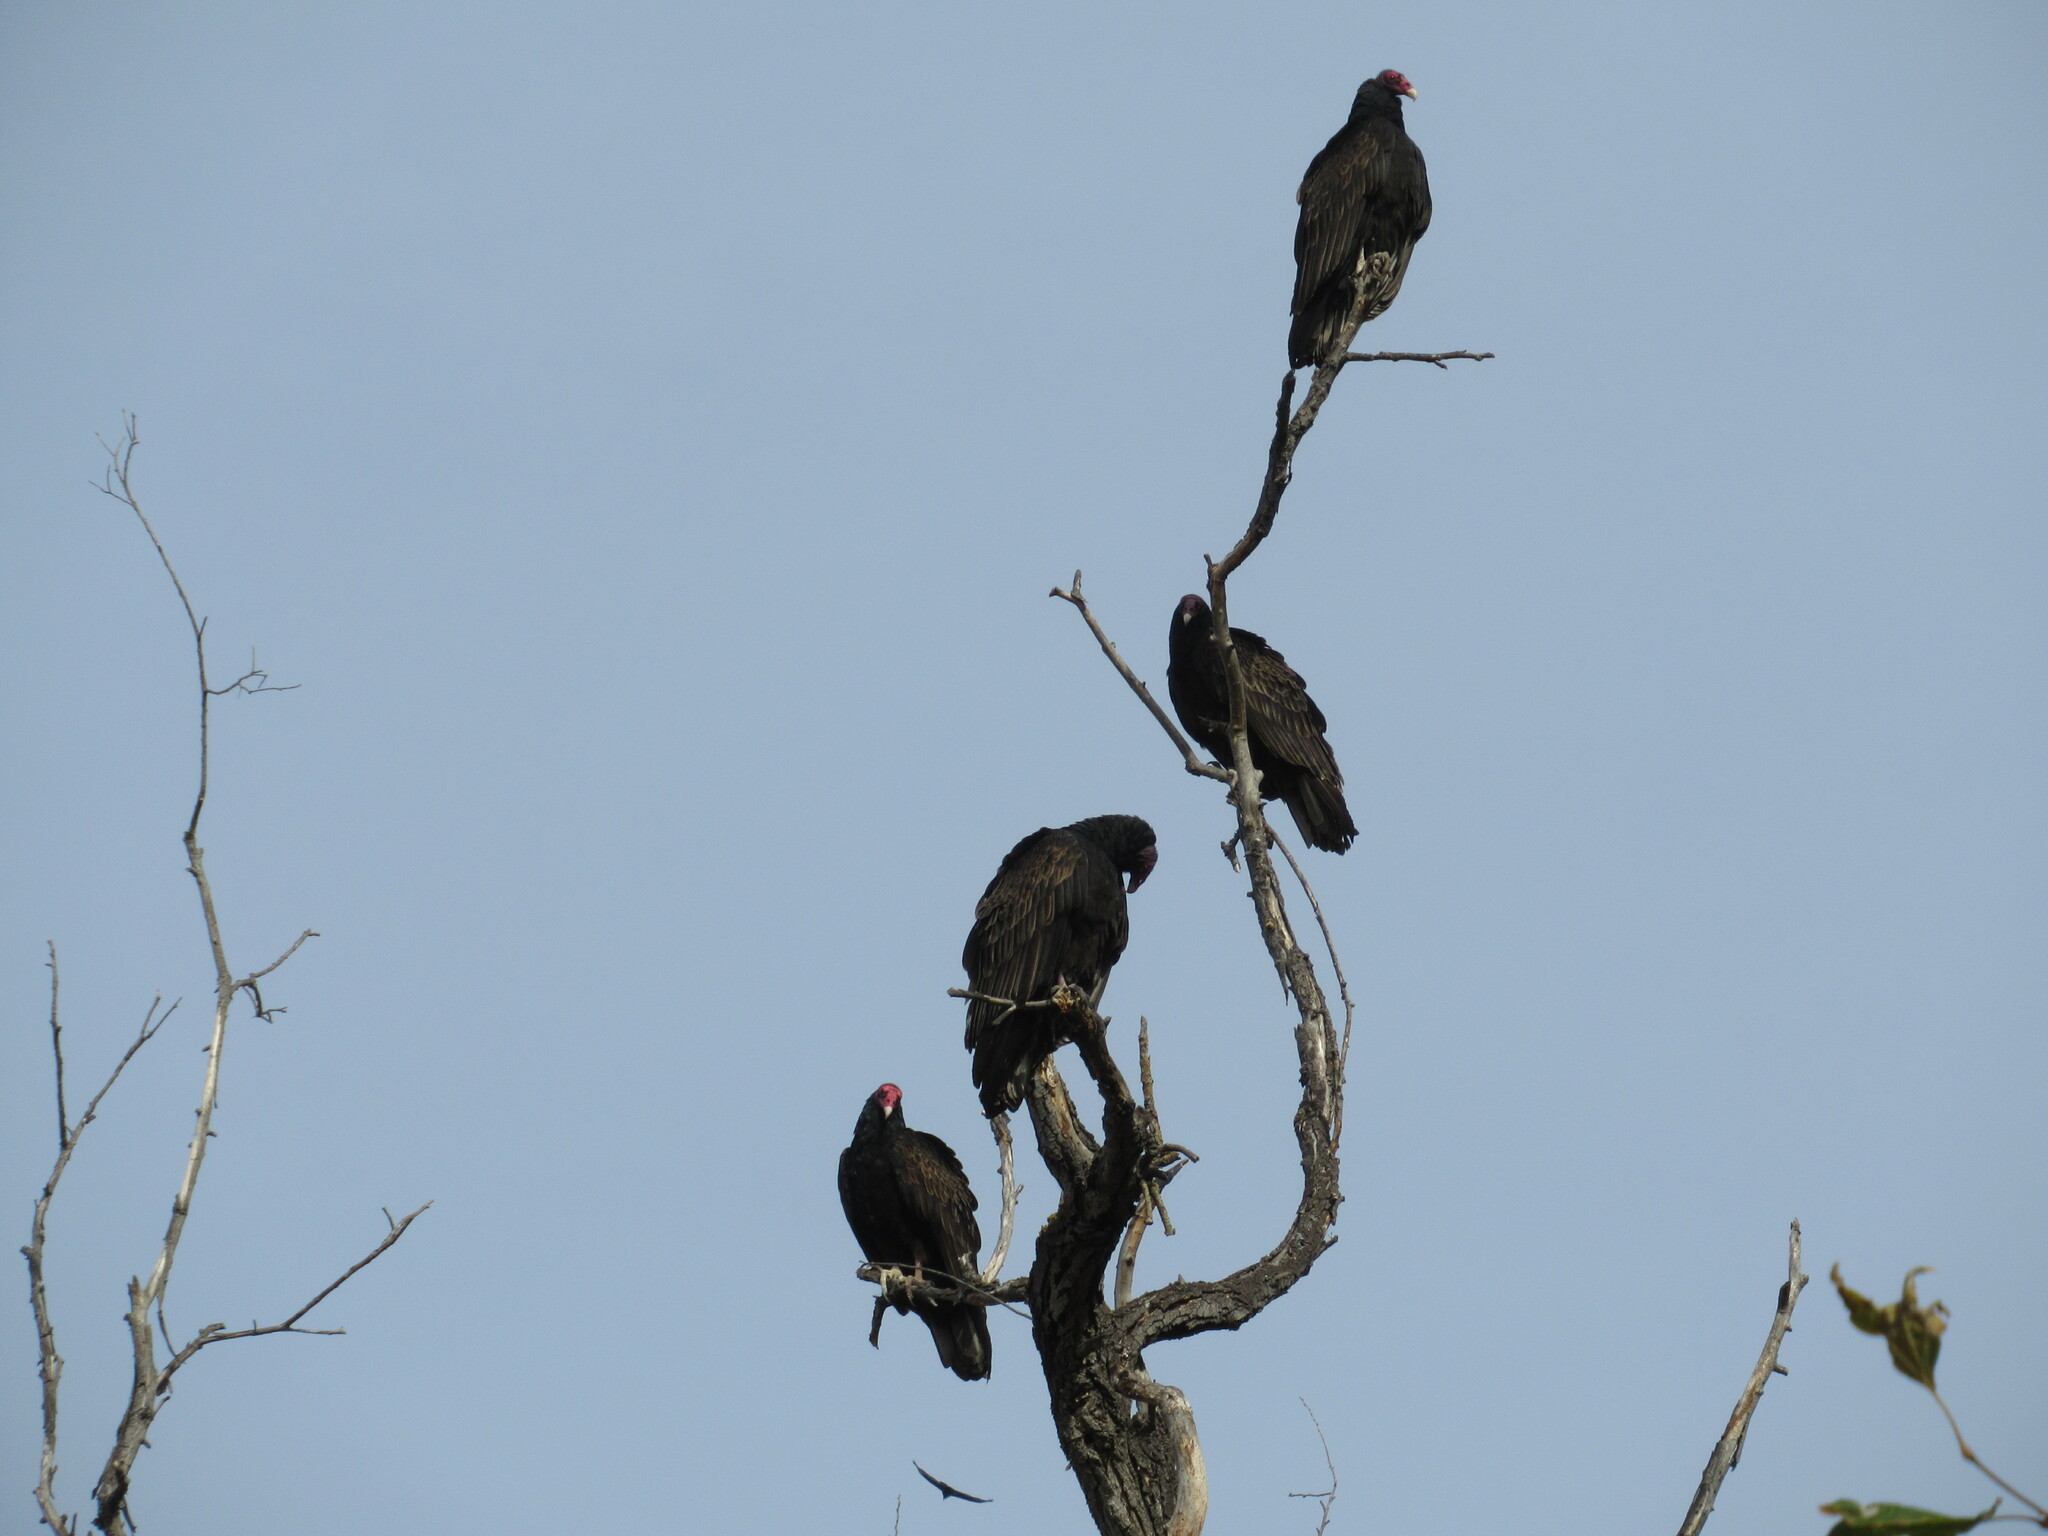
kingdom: Animalia
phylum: Chordata
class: Aves
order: Accipitriformes
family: Cathartidae
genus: Cathartes
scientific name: Cathartes aura
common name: Turkey vulture
